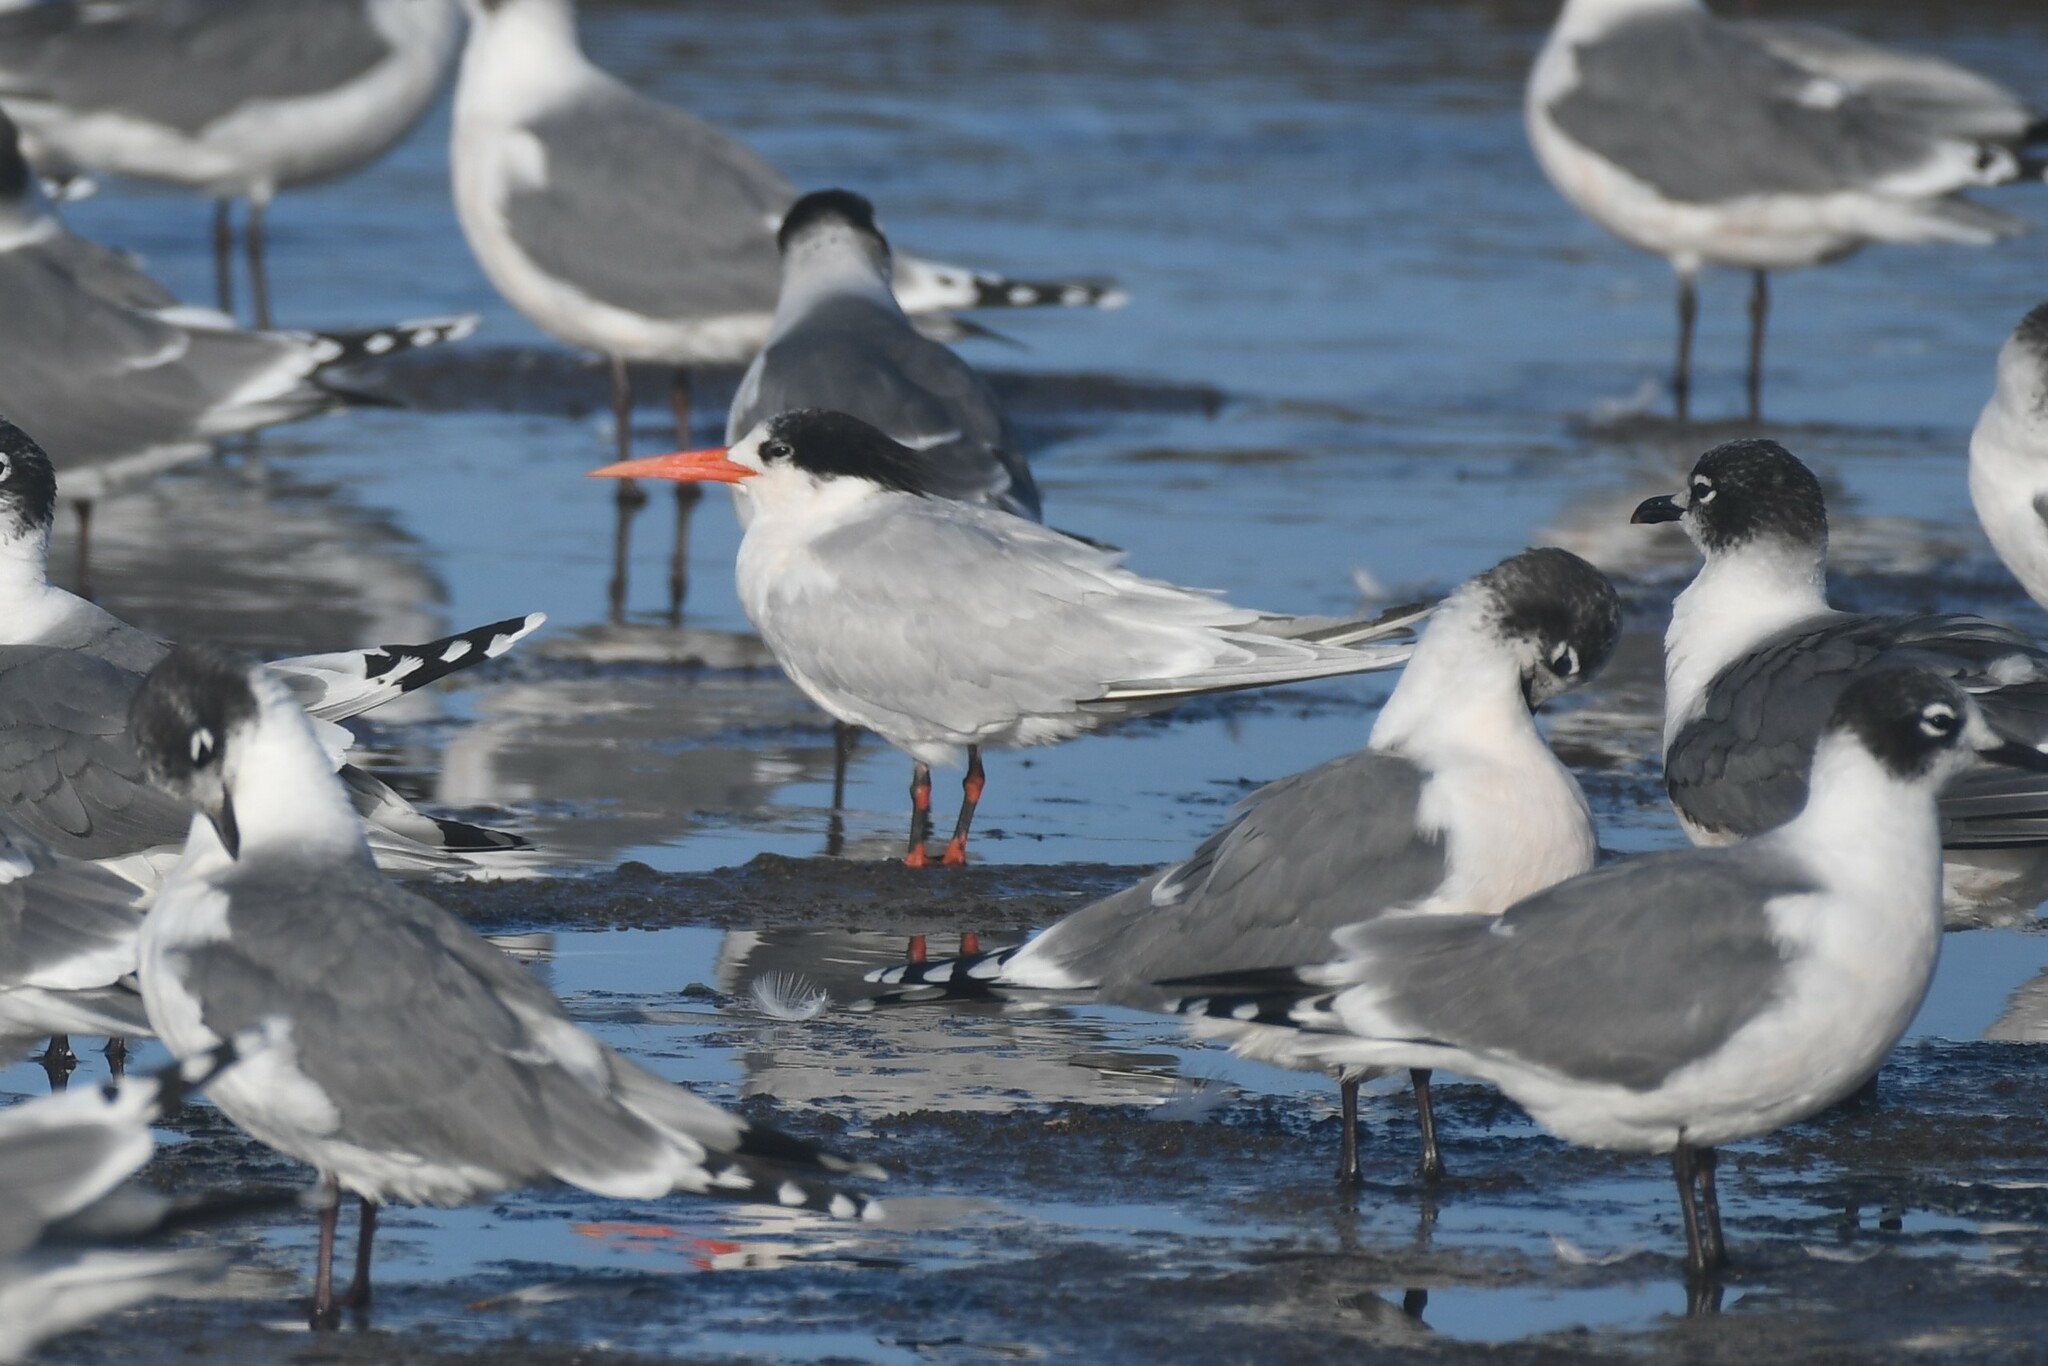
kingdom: Animalia
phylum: Chordata
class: Aves
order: Charadriiformes
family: Laridae
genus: Thalasseus
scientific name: Thalasseus elegans
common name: Elegant tern
